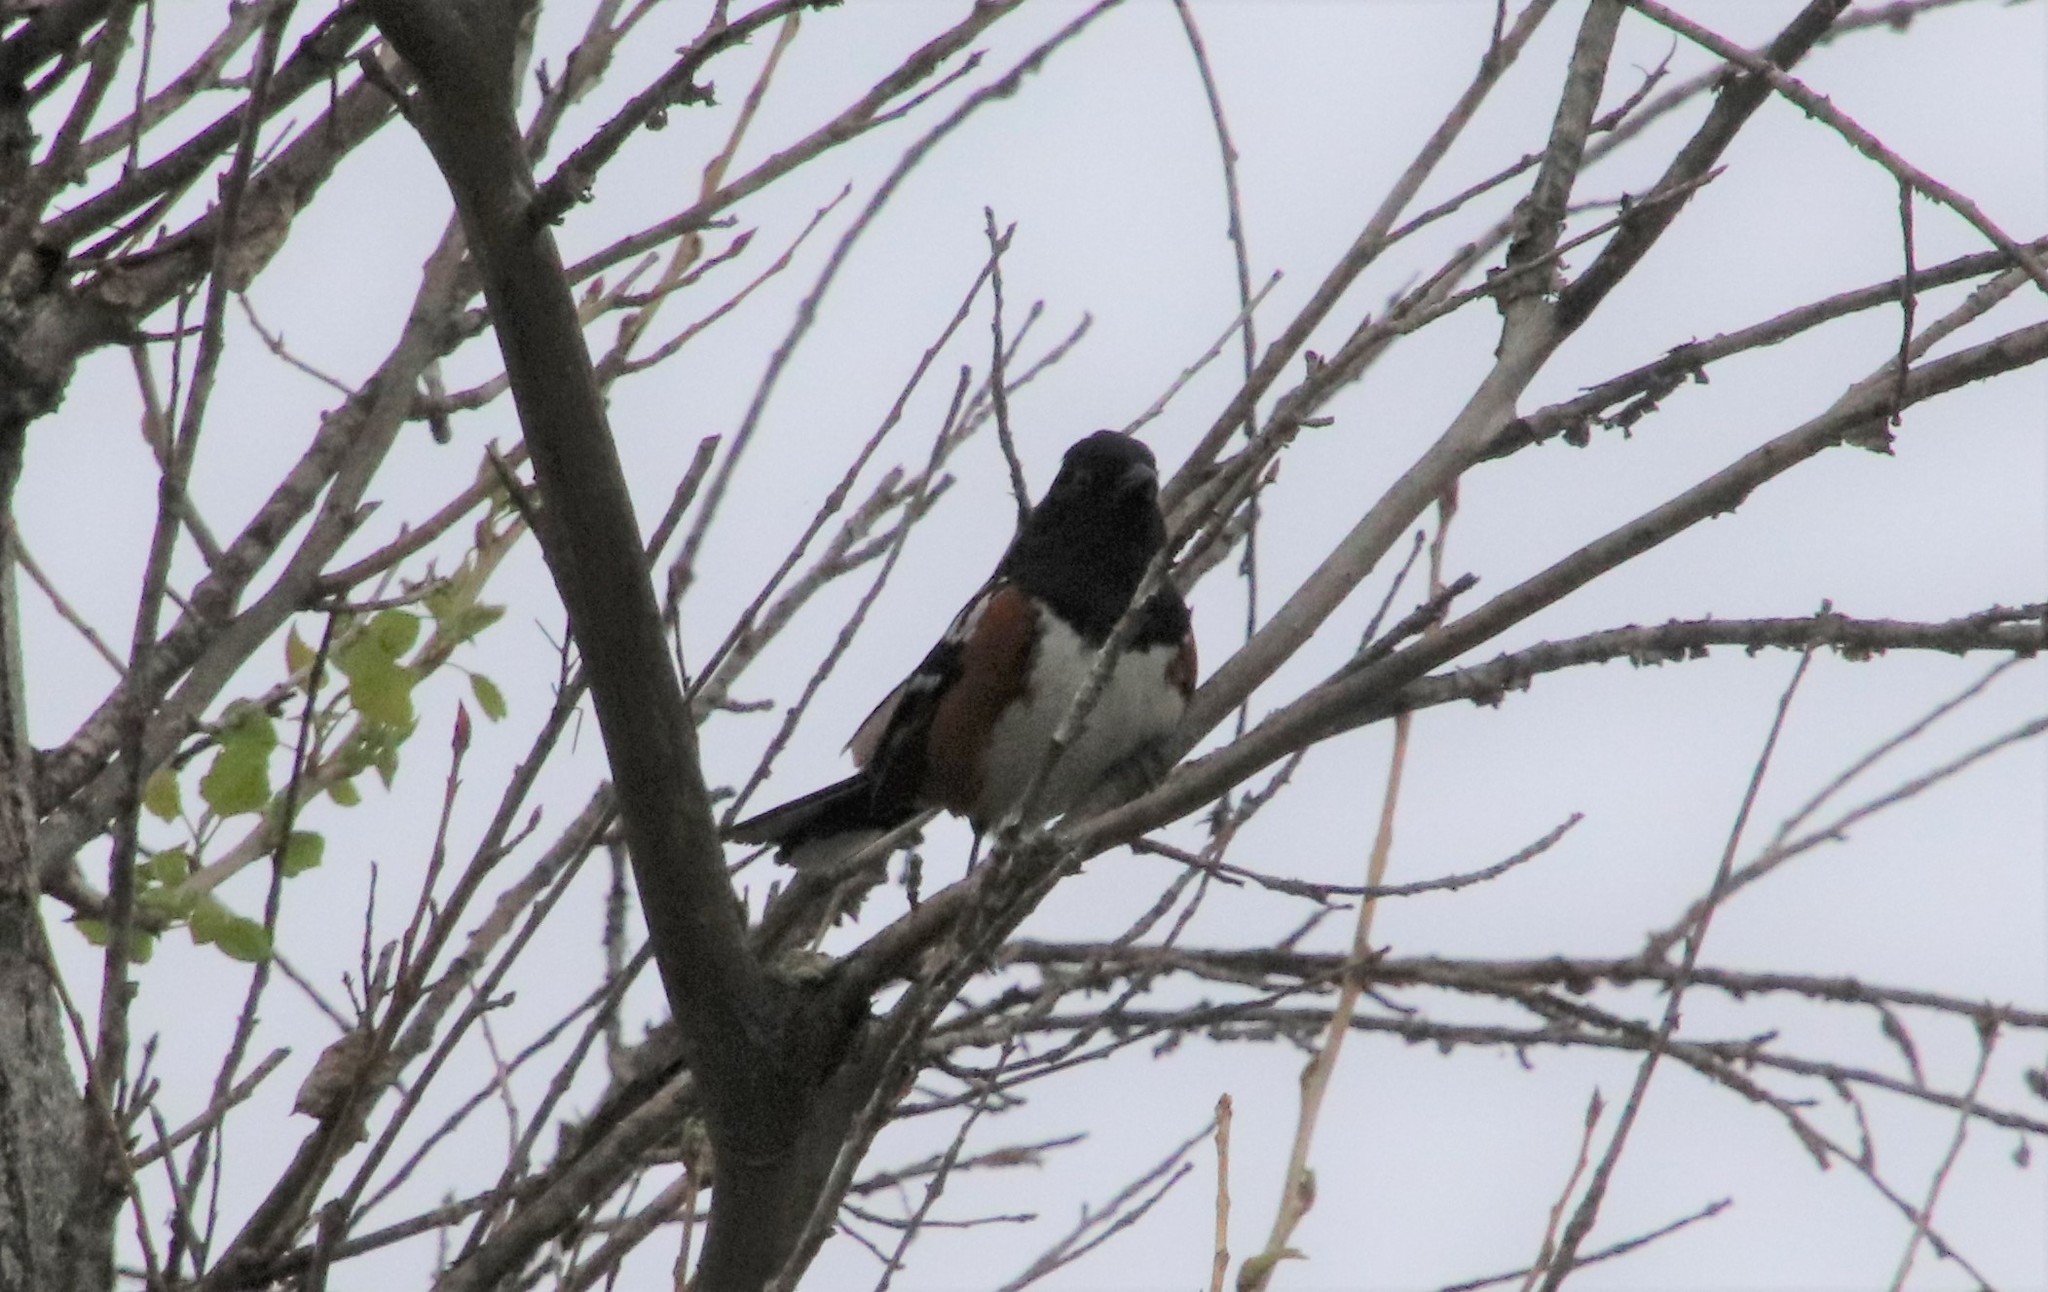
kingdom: Animalia
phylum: Chordata
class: Aves
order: Passeriformes
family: Passerellidae
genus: Pipilo
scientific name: Pipilo maculatus
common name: Spotted towhee
